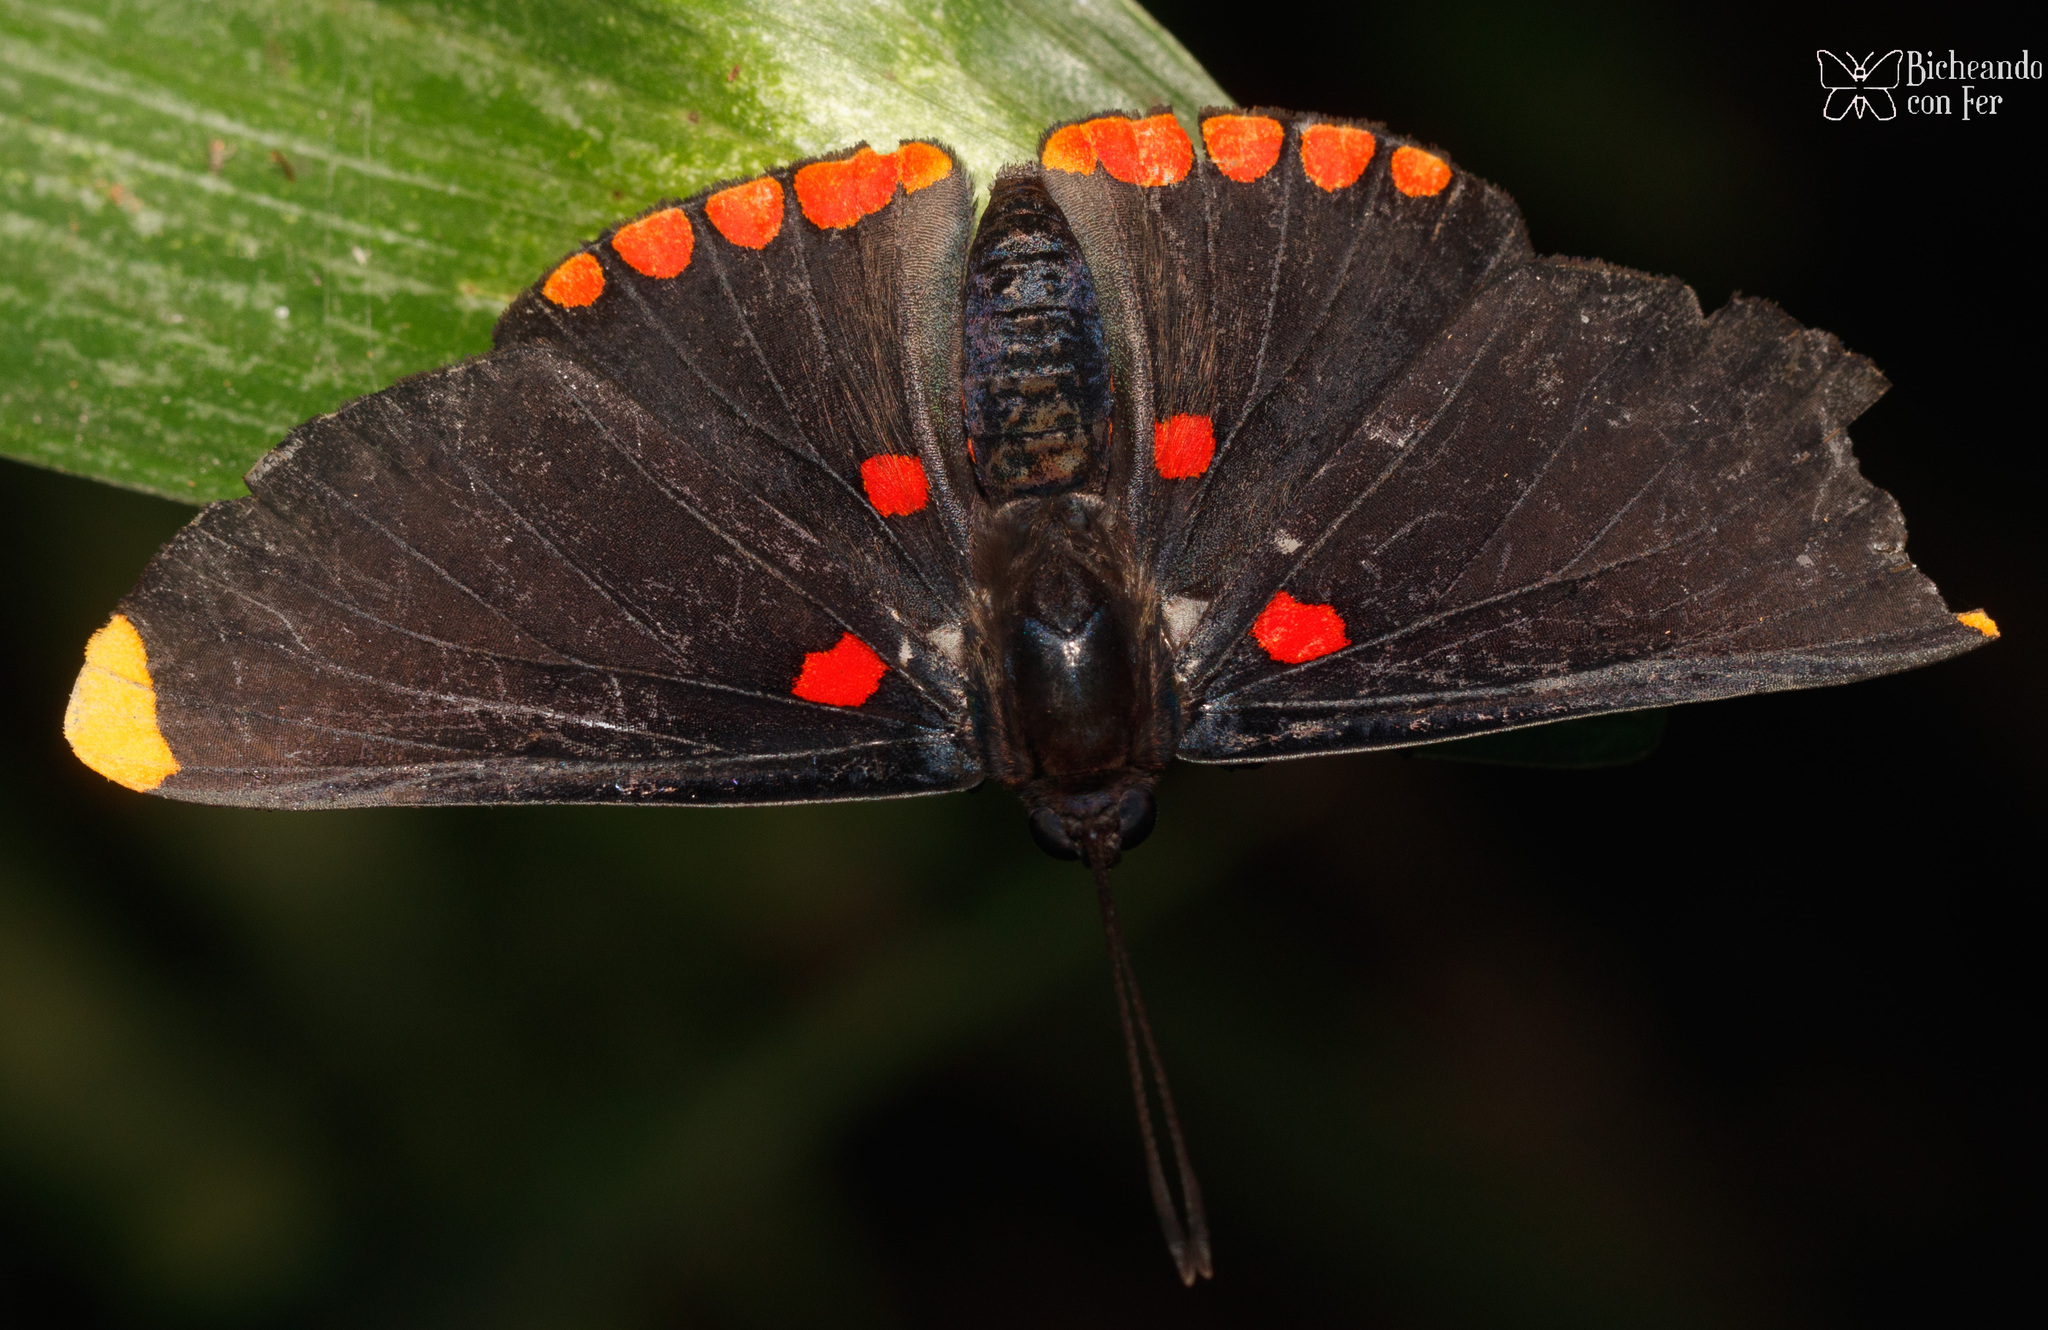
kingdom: Animalia
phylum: Arthropoda
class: Insecta
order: Lepidoptera
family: Lycaenidae
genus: Melanis
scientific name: Melanis pixe
